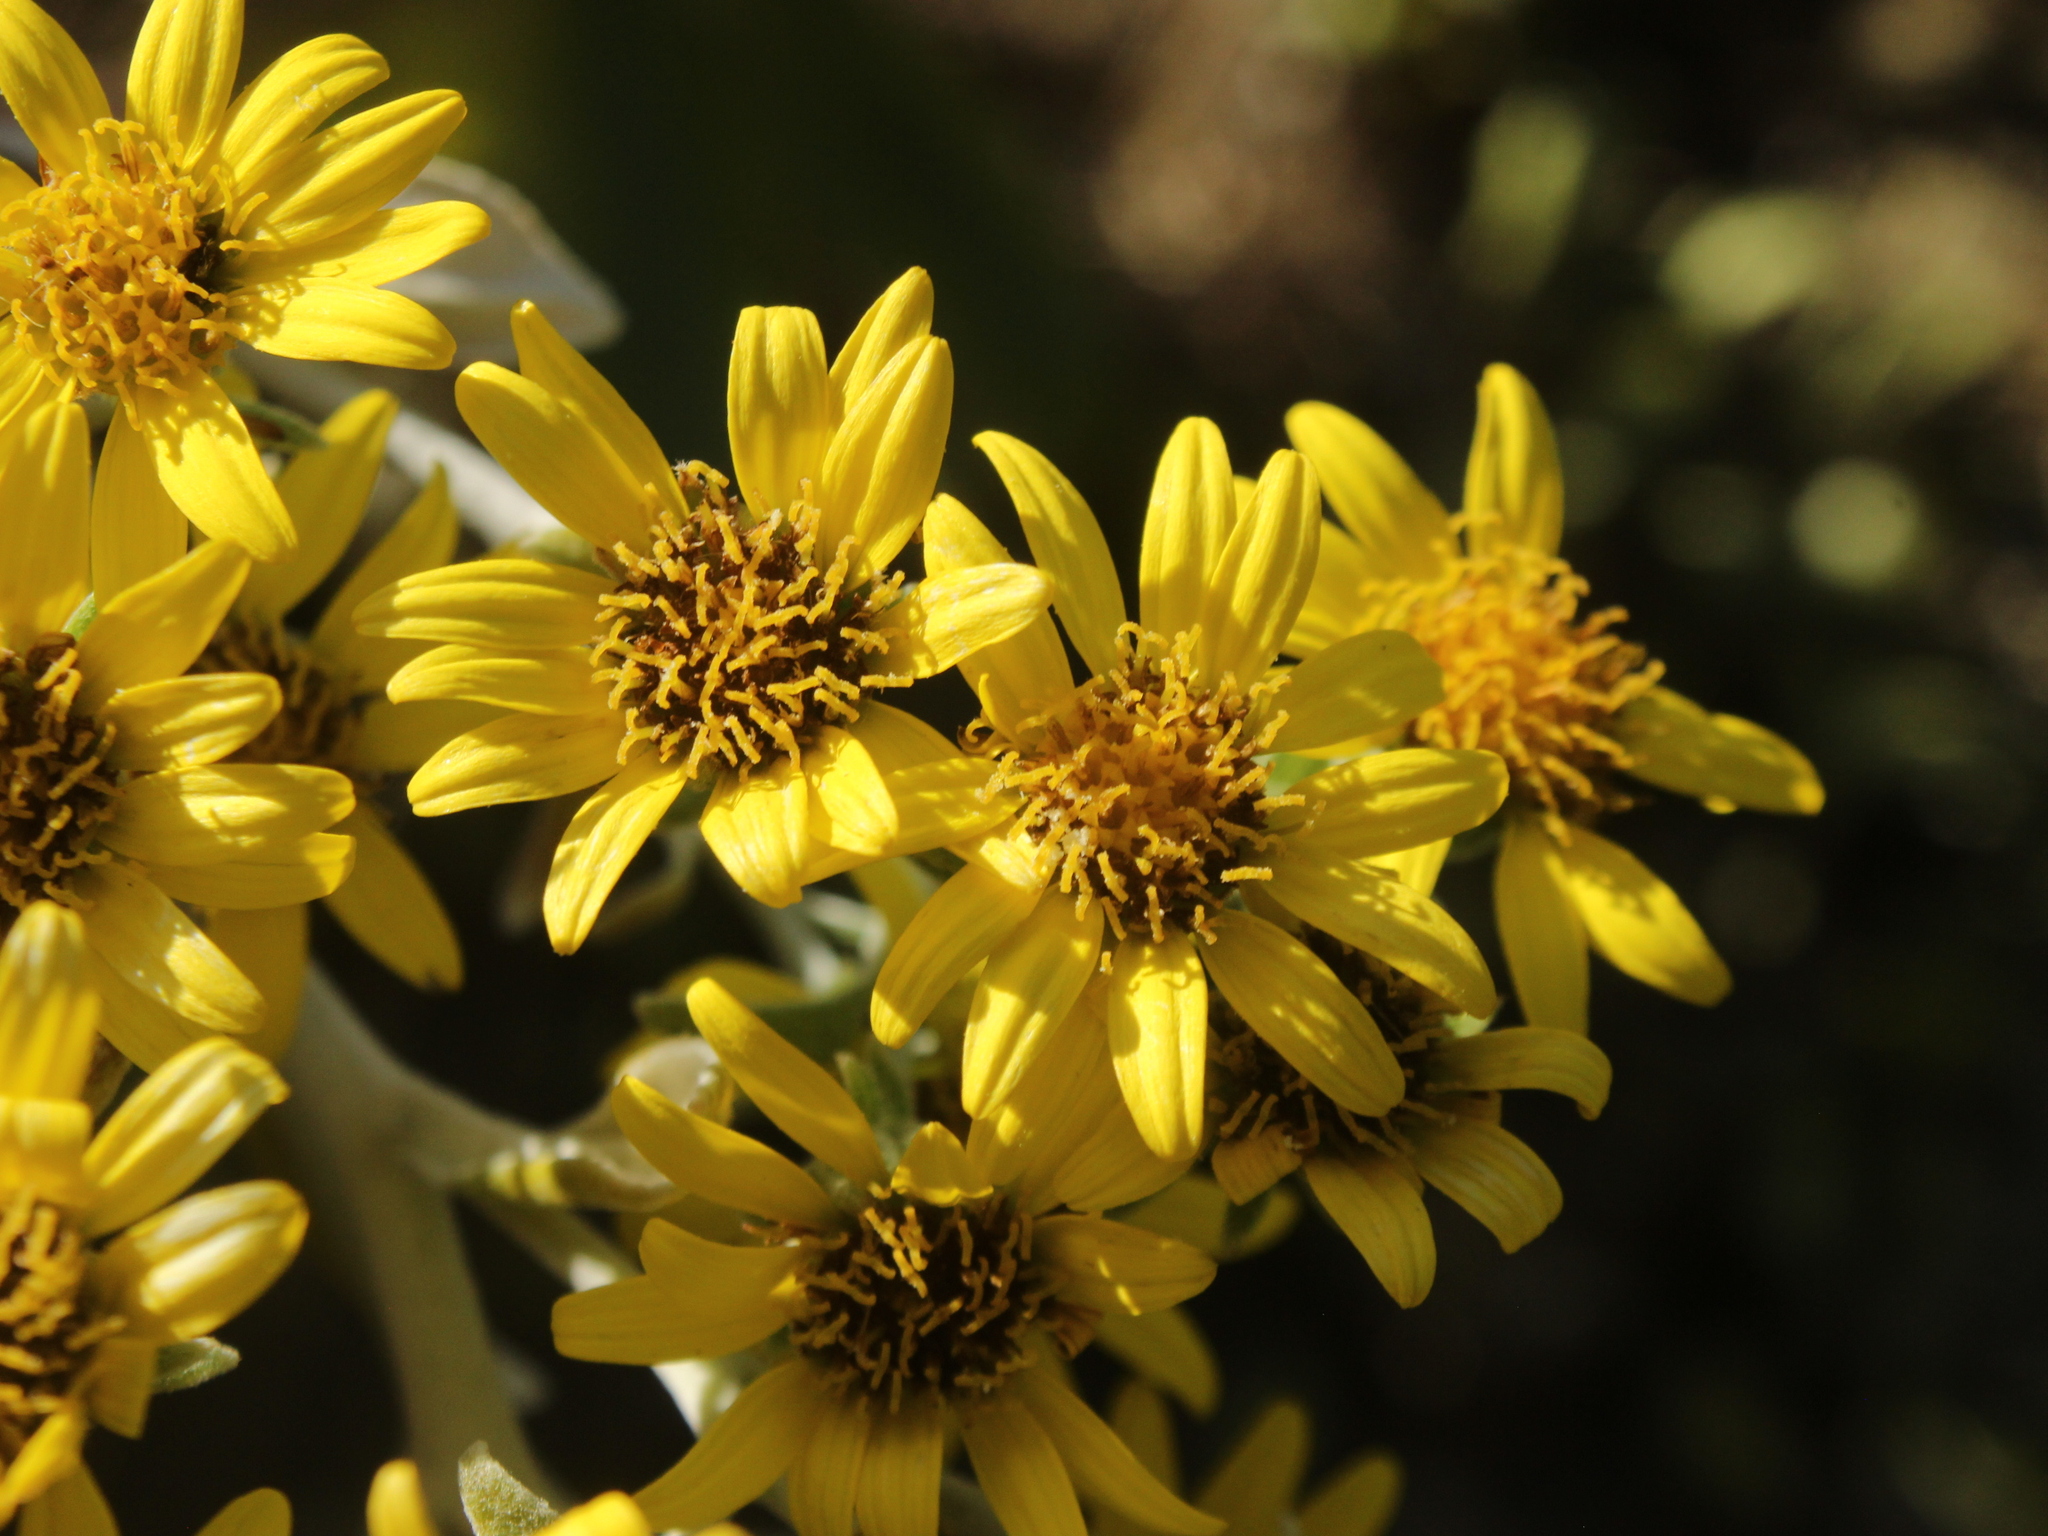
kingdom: Plantae
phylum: Tracheophyta
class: Magnoliopsida
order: Asterales
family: Asteraceae
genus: Brachyglottis
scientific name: Brachyglottis greyi
